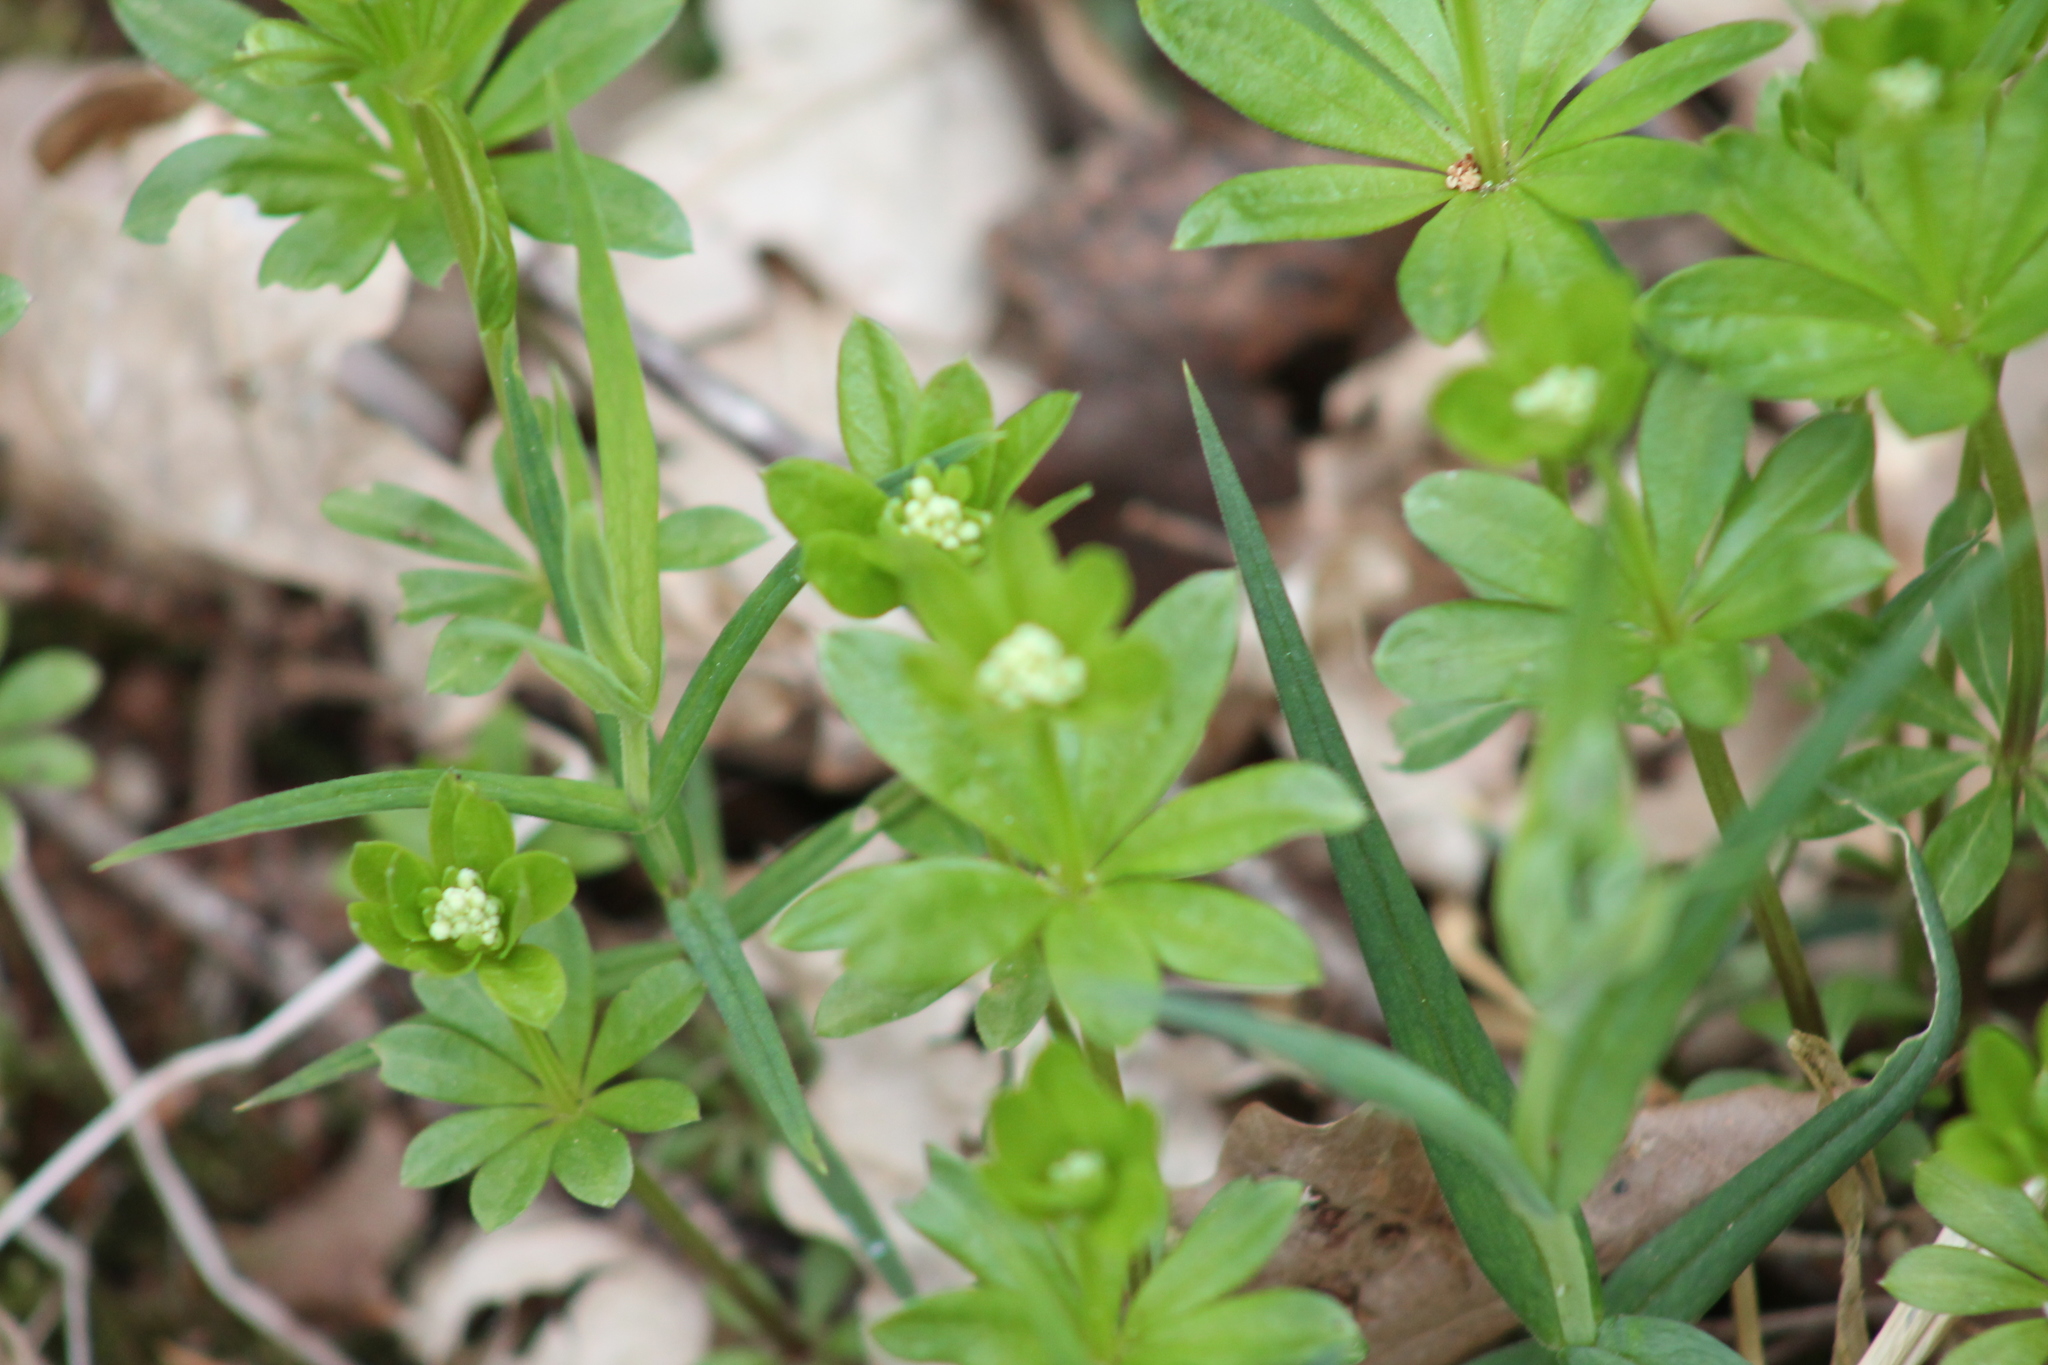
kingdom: Plantae
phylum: Tracheophyta
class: Magnoliopsida
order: Gentianales
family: Rubiaceae
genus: Galium
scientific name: Galium odoratum
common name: Sweet woodruff
